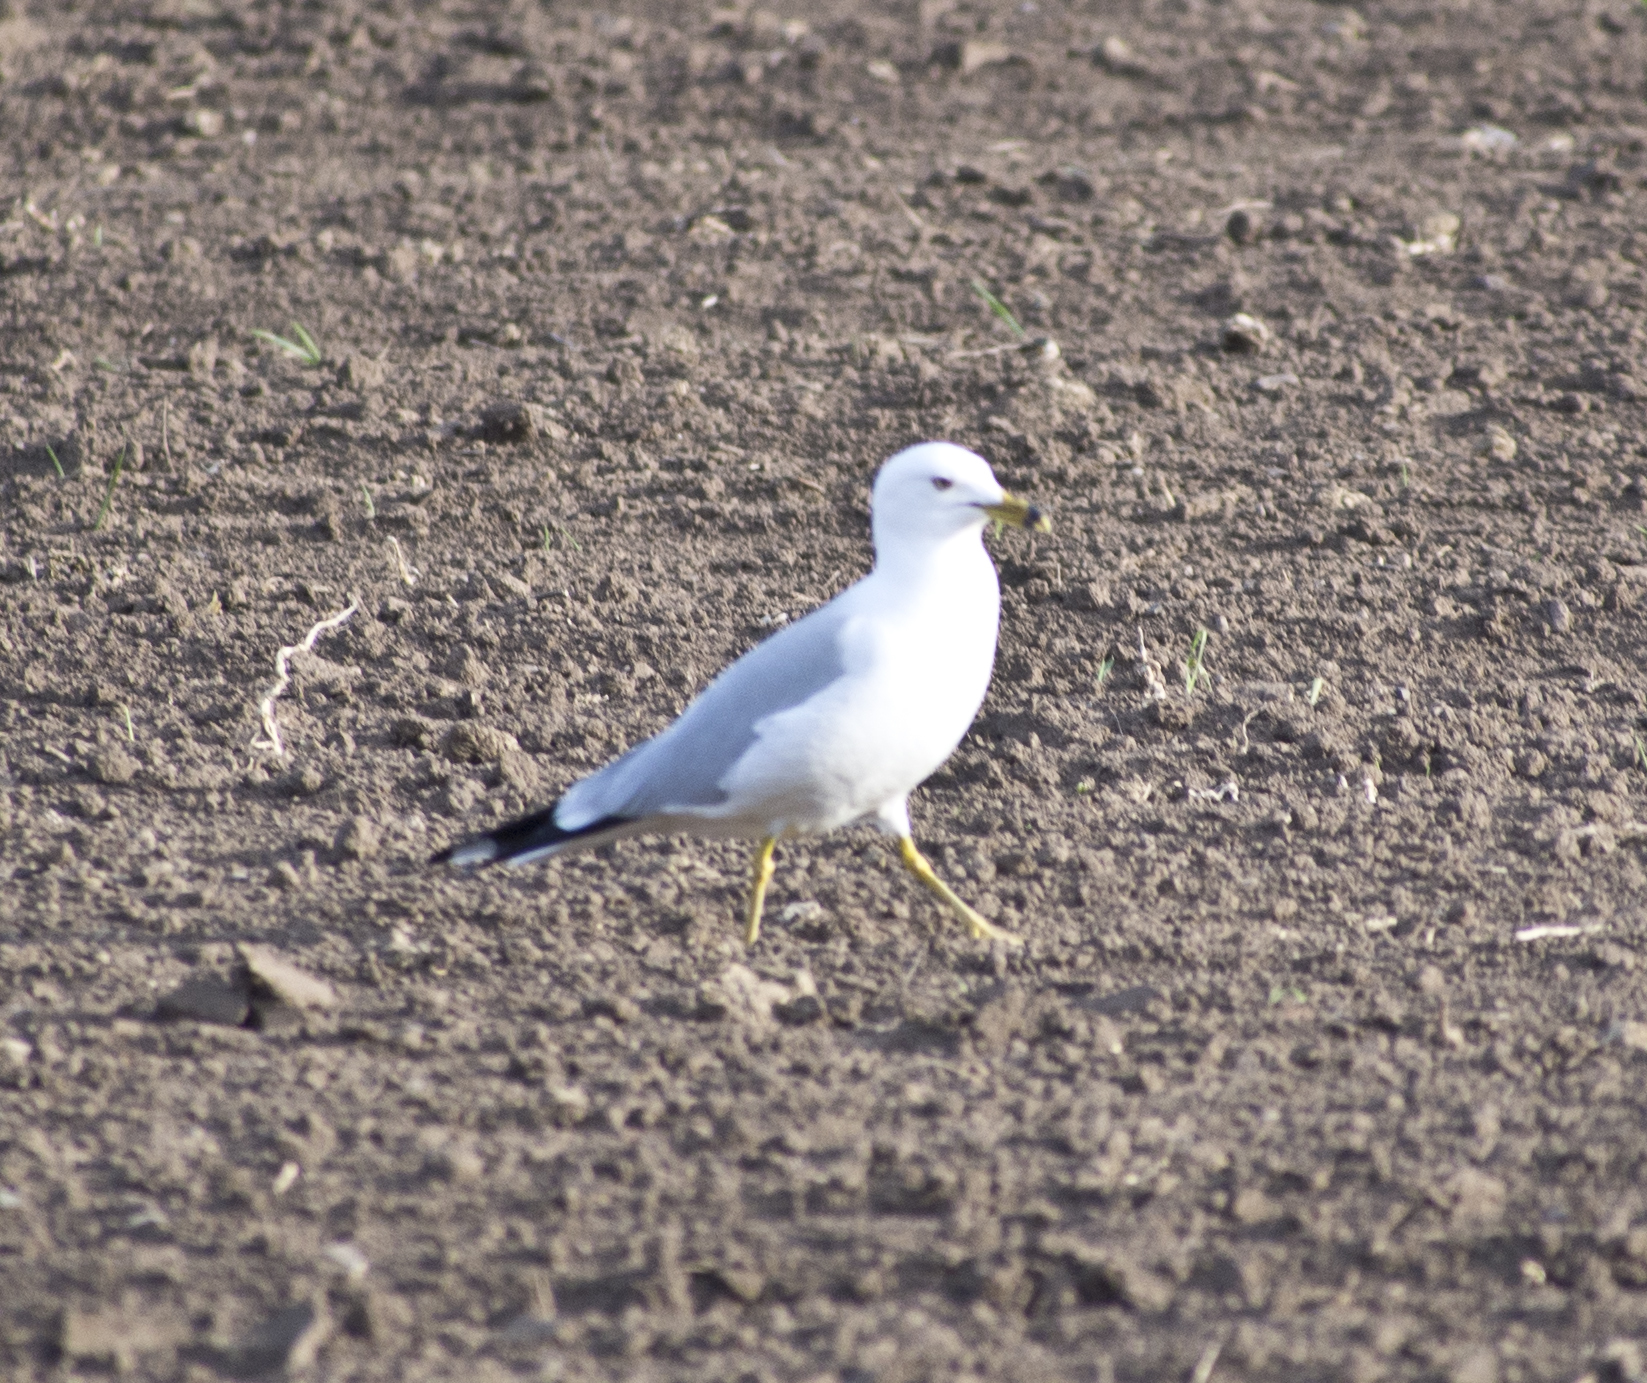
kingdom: Animalia
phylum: Chordata
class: Aves
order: Charadriiformes
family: Laridae
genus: Larus
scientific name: Larus delawarensis
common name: Ring-billed gull
